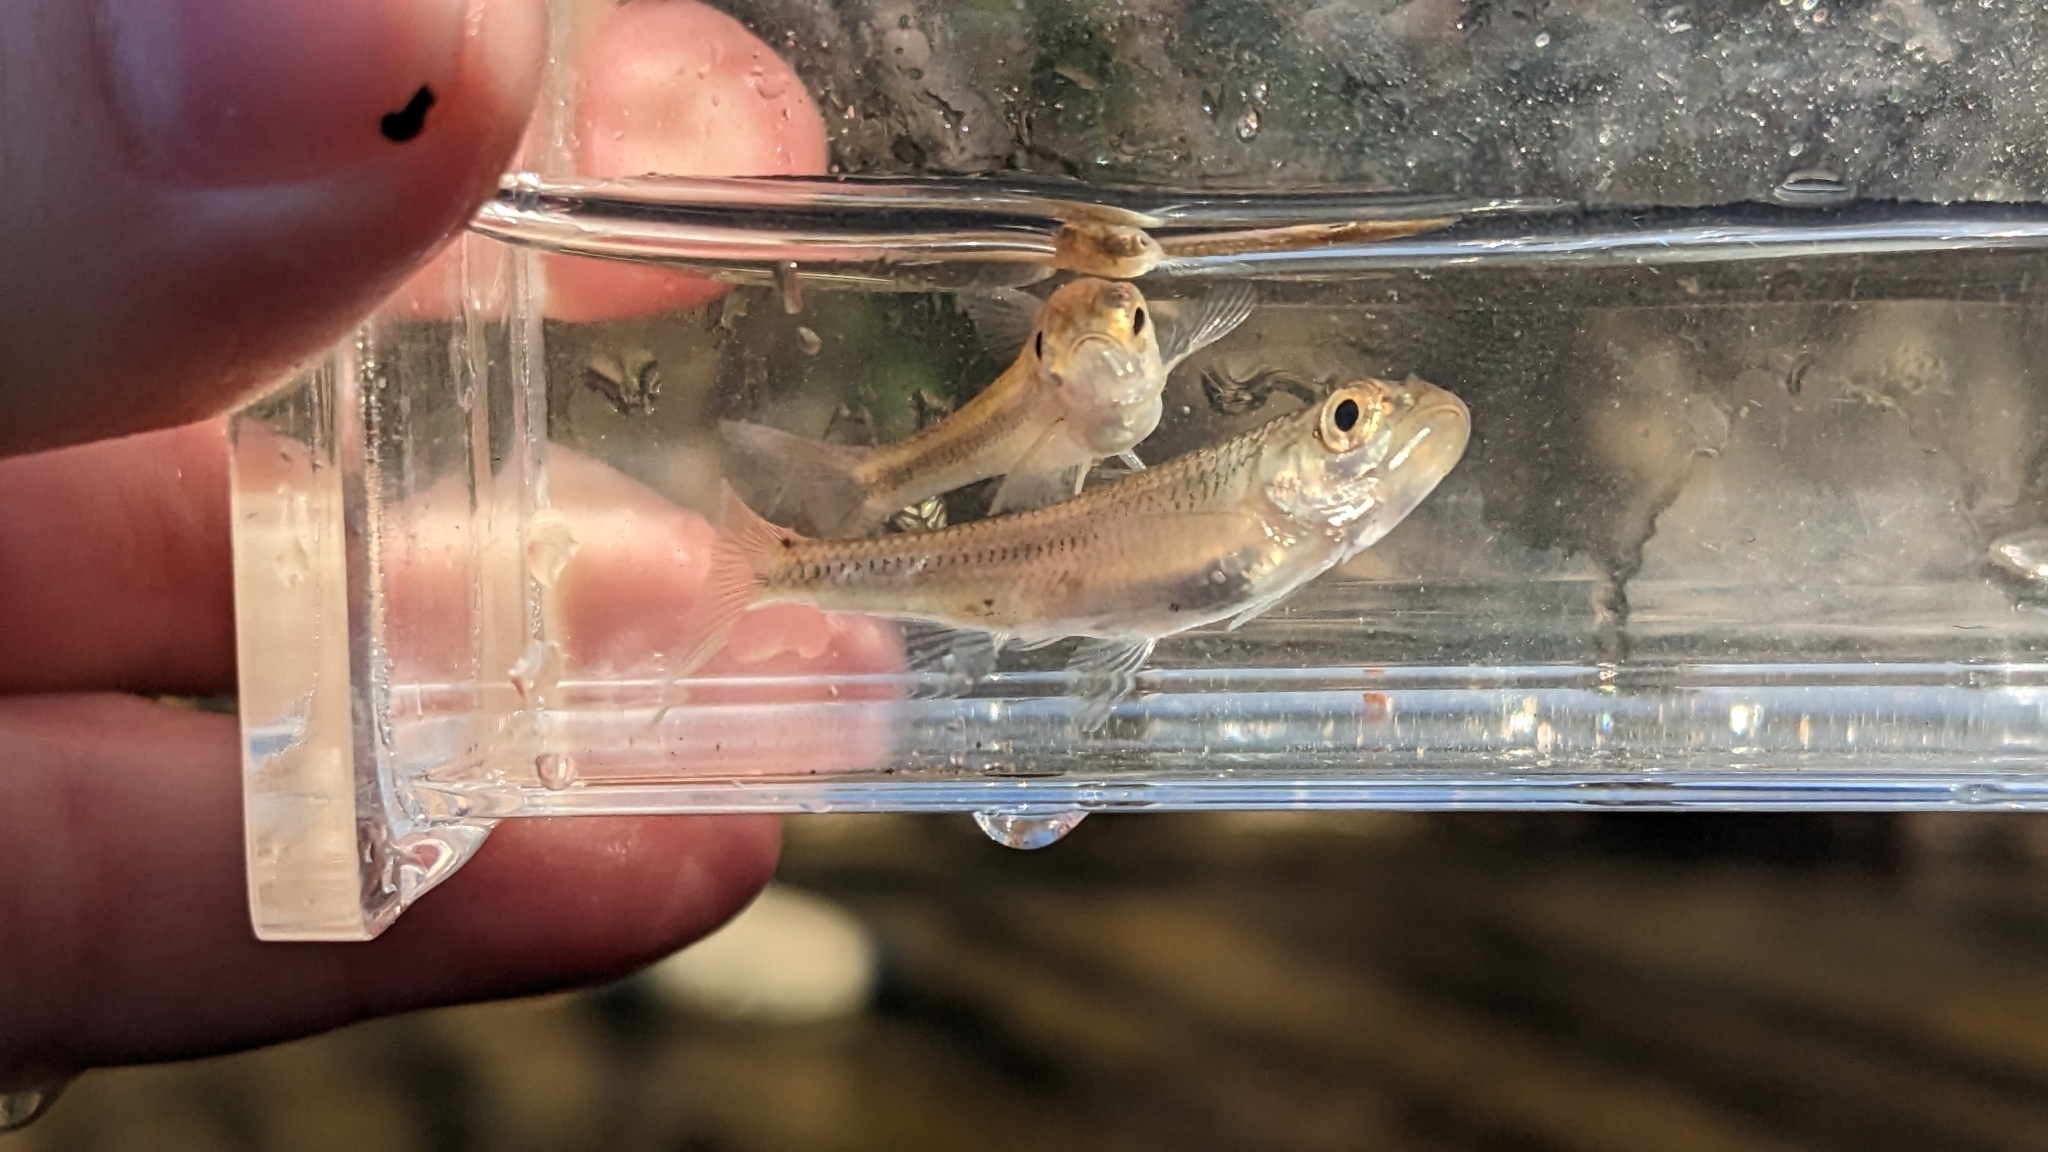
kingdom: Animalia
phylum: Chordata
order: Cypriniformes
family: Cyprinidae
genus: Luxilus
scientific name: Luxilus chrysocephalus
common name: Striped shiner
